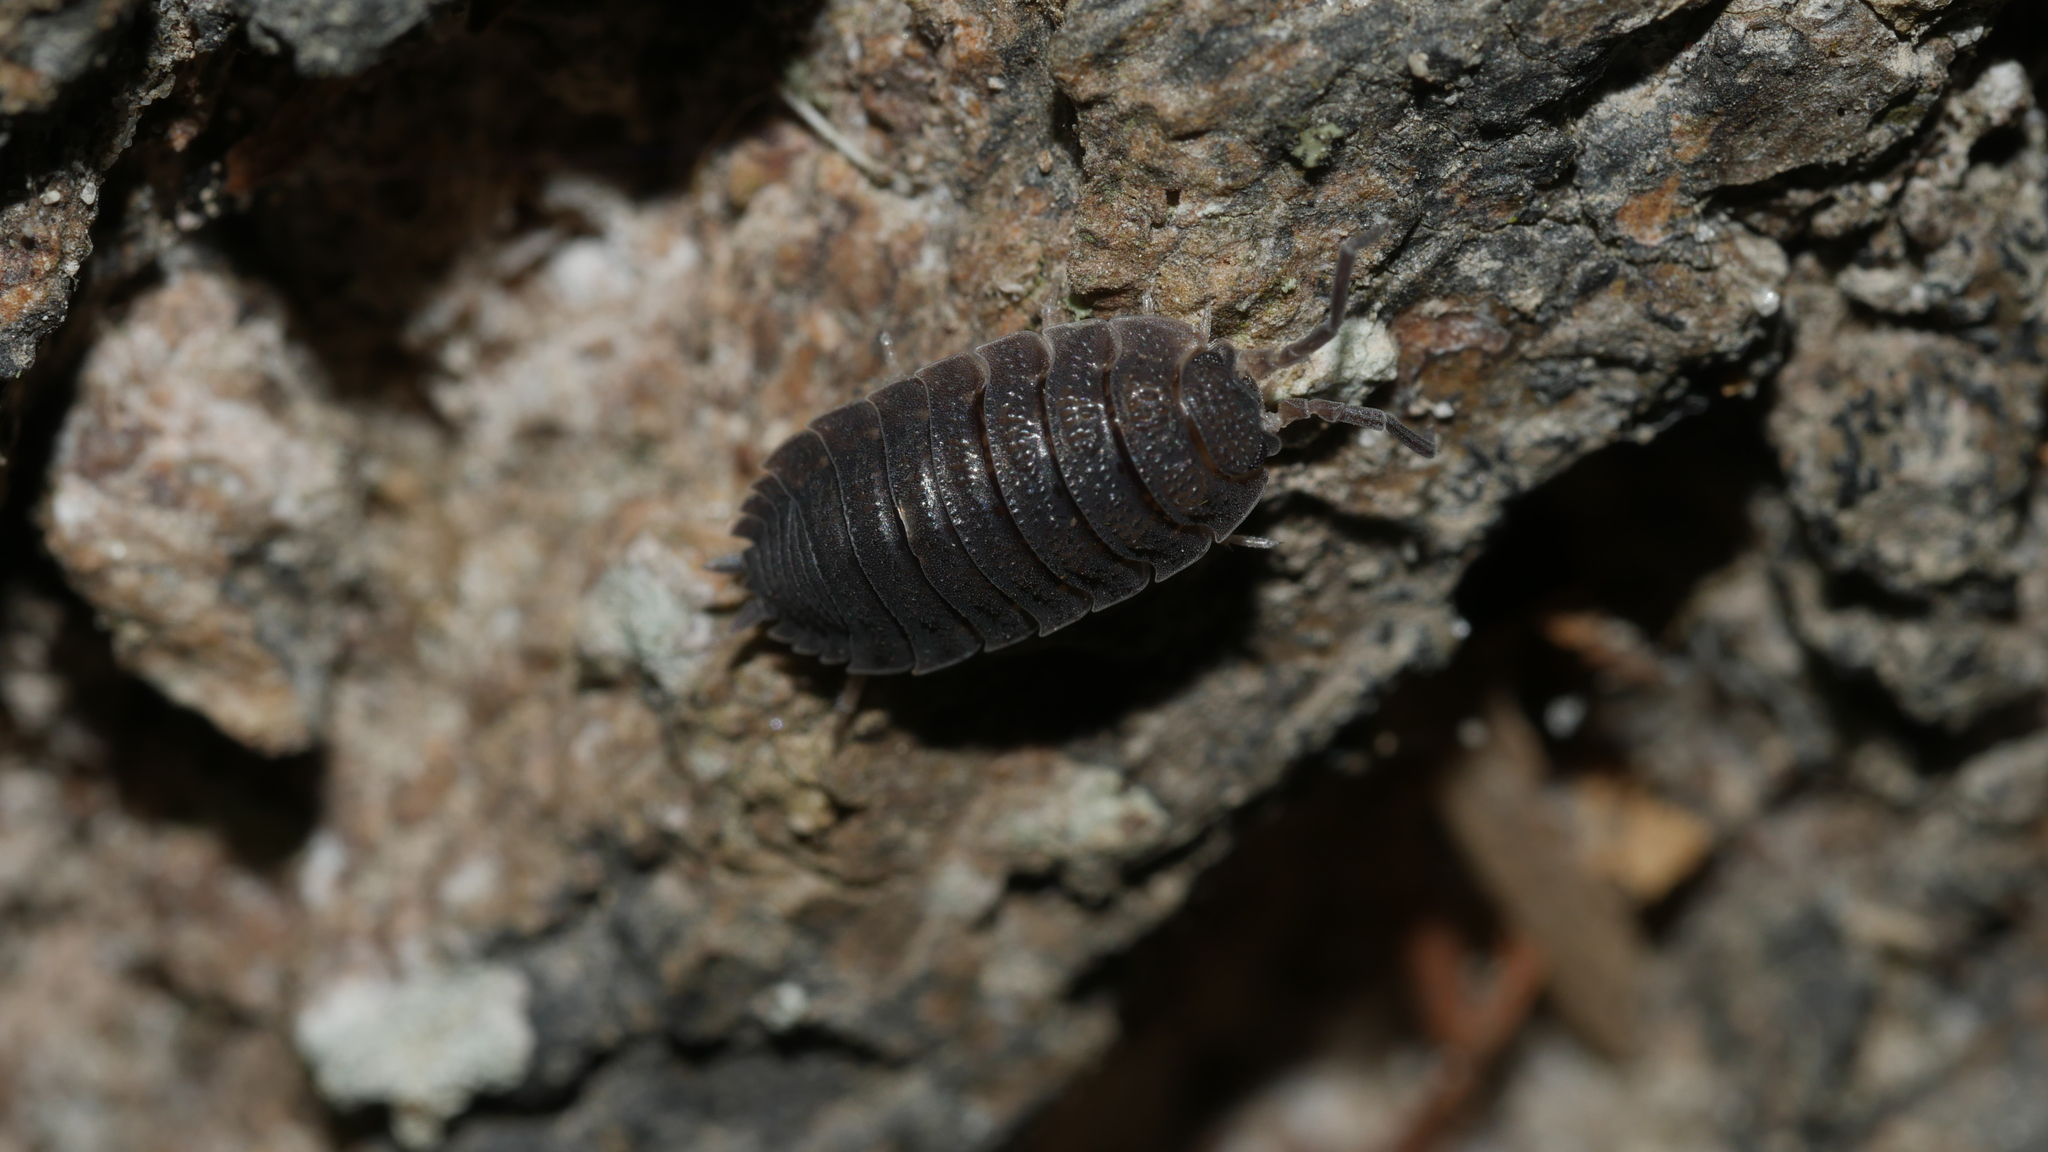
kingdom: Animalia
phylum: Arthropoda
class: Malacostraca
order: Isopoda
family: Porcellionidae
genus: Porcellio
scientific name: Porcellio scaber
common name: Common rough woodlouse
